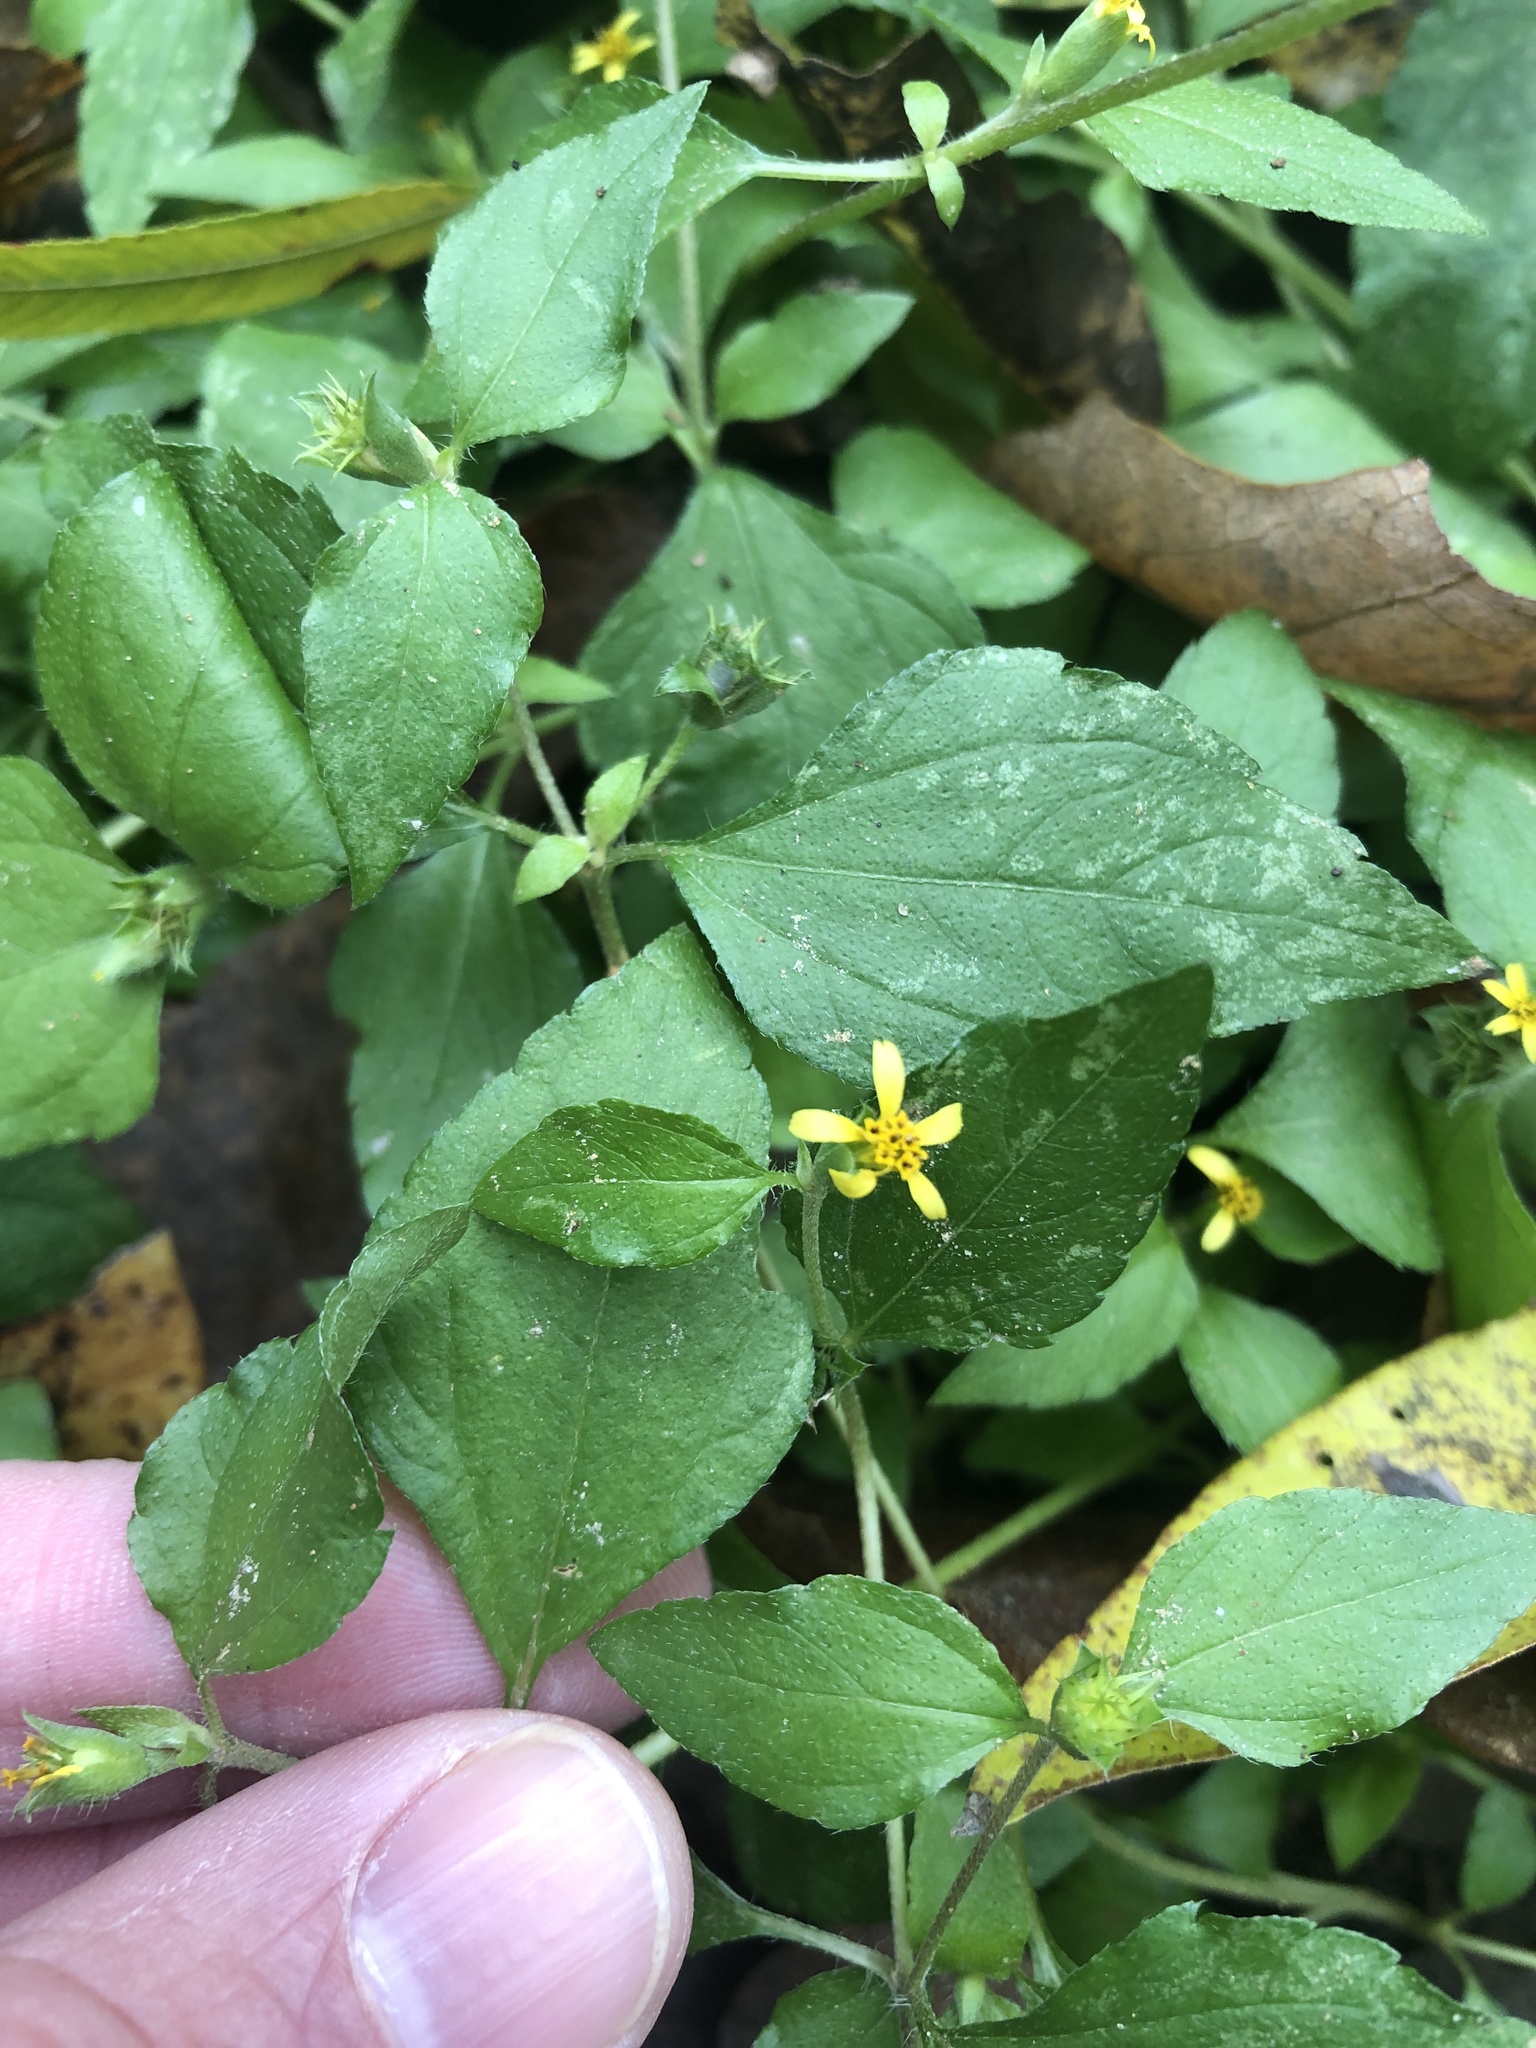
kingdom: Plantae
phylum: Tracheophyta
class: Magnoliopsida
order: Asterales
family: Asteraceae
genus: Calyptocarpus
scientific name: Calyptocarpus vialis
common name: Straggler daisy
